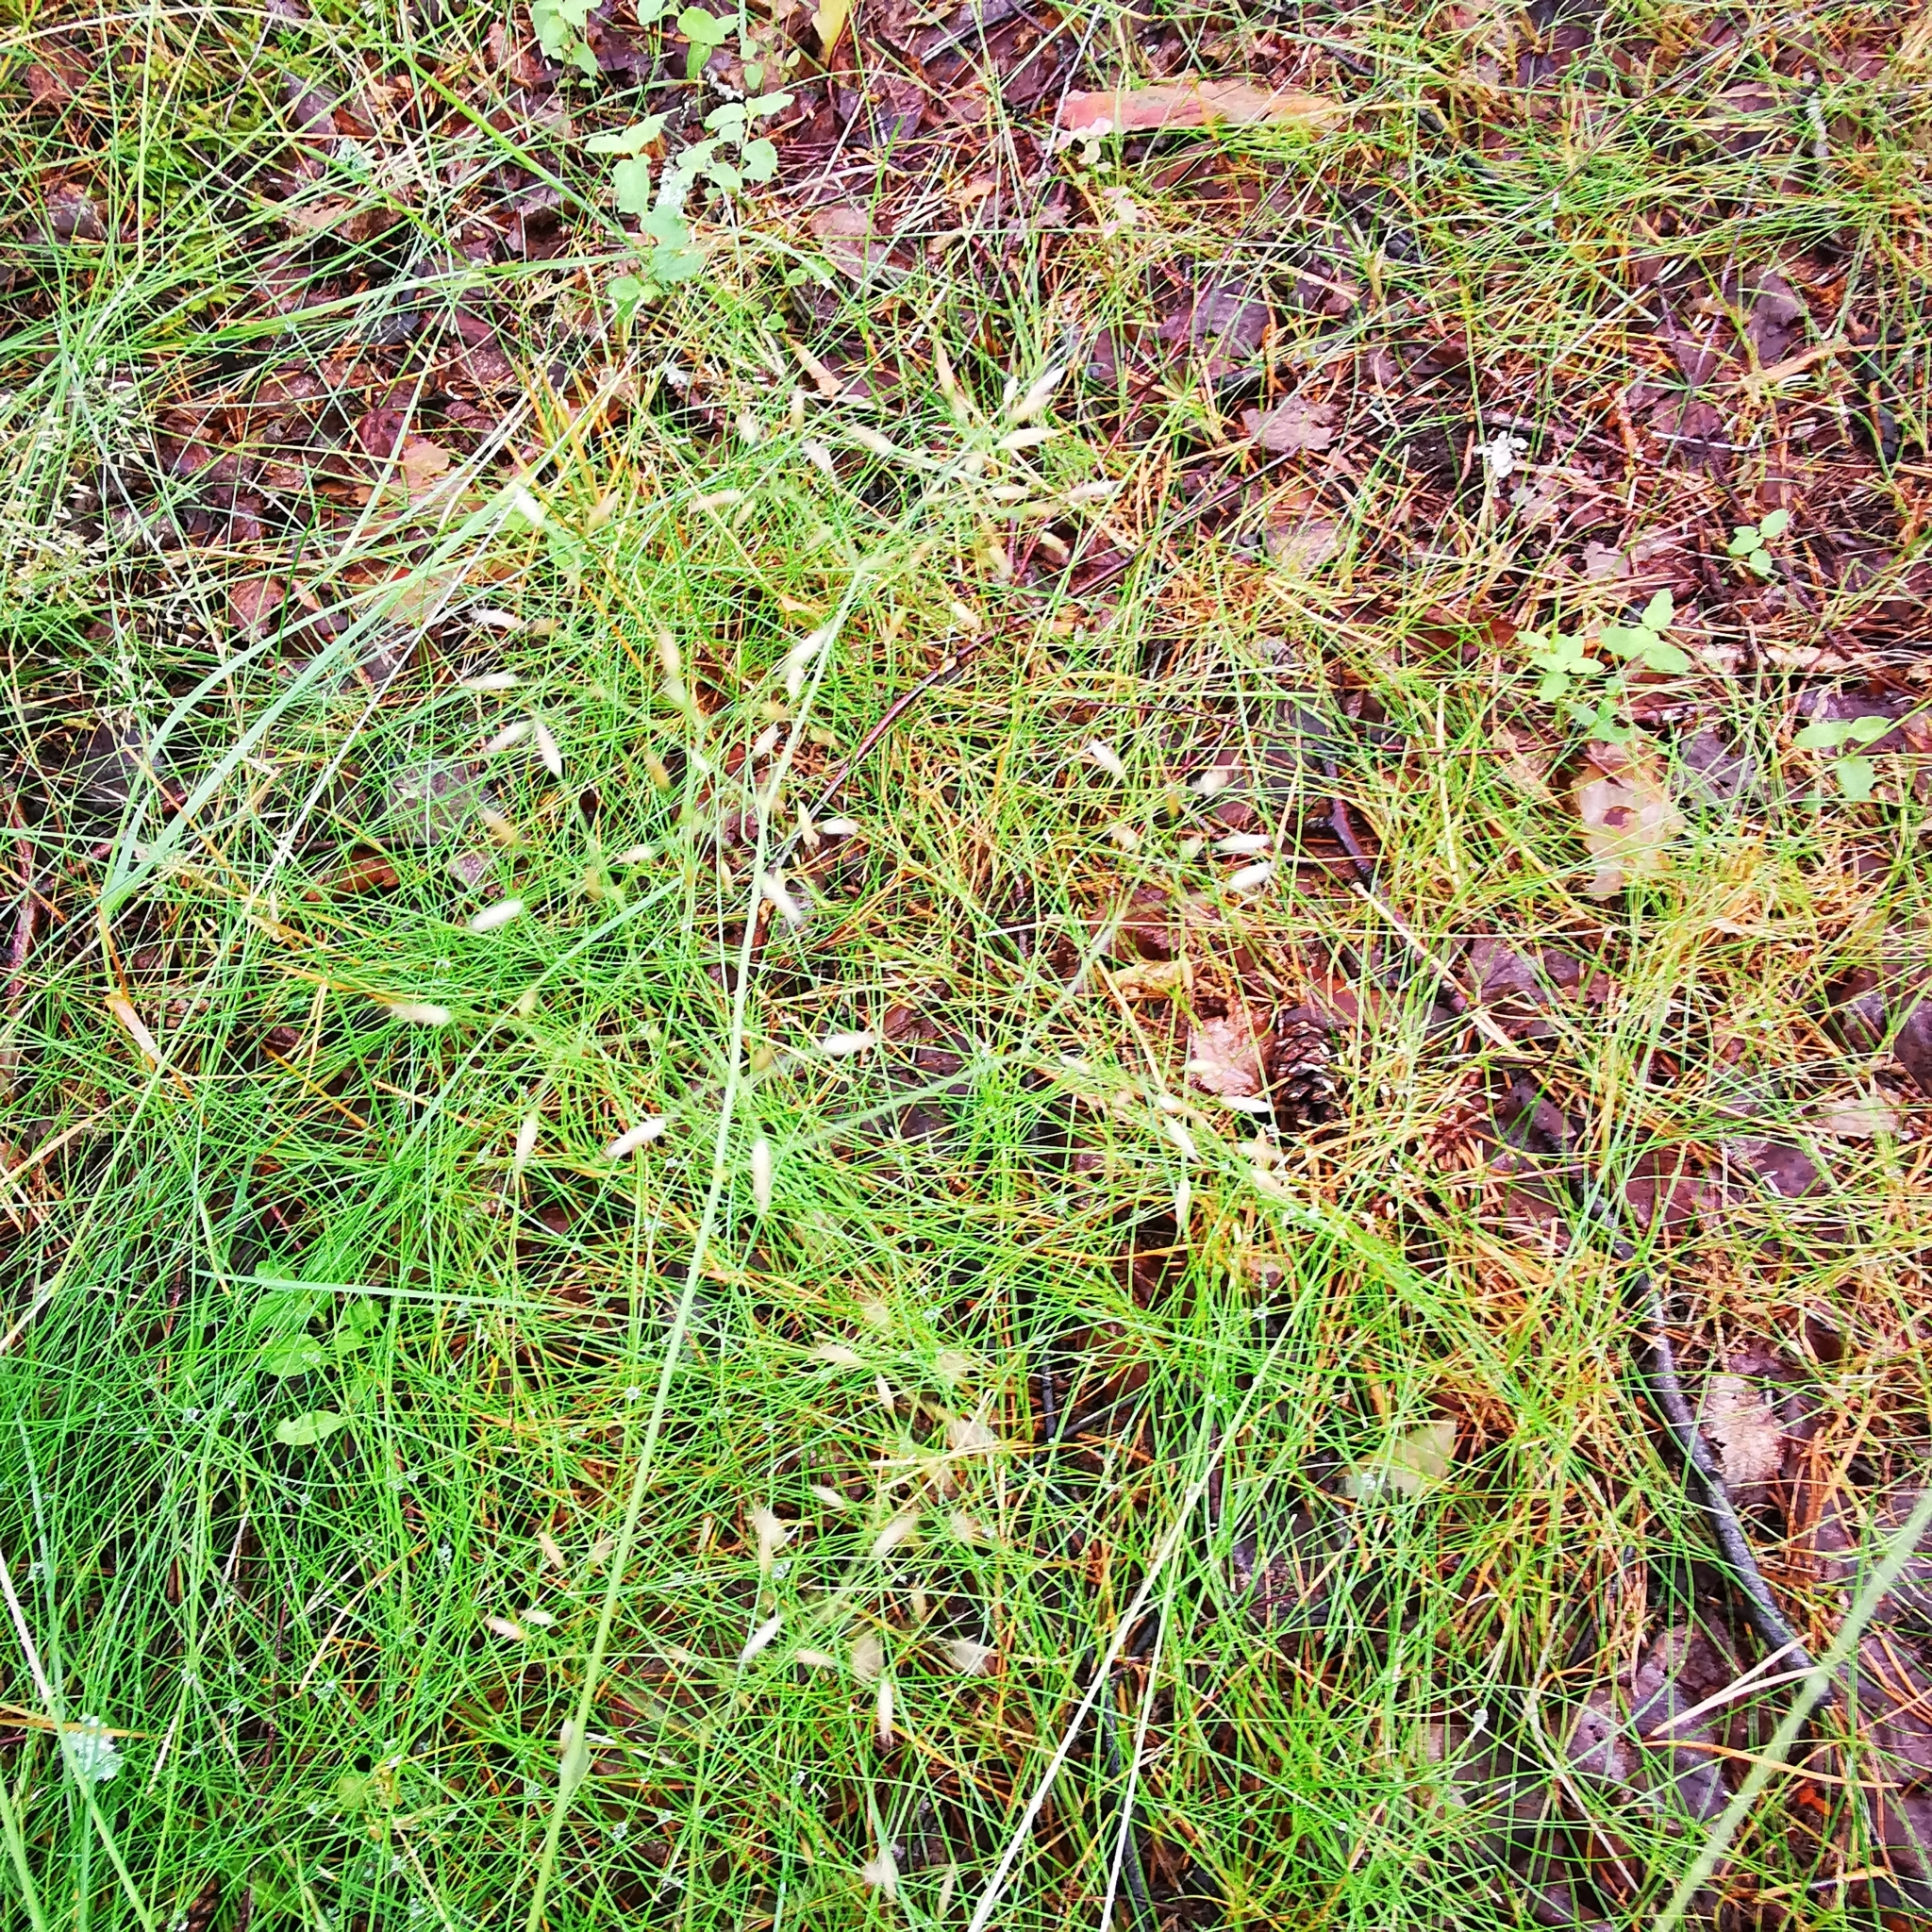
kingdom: Plantae
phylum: Tracheophyta
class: Liliopsida
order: Poales
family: Poaceae
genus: Avenella
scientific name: Avenella flexuosa
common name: Wavy hairgrass
